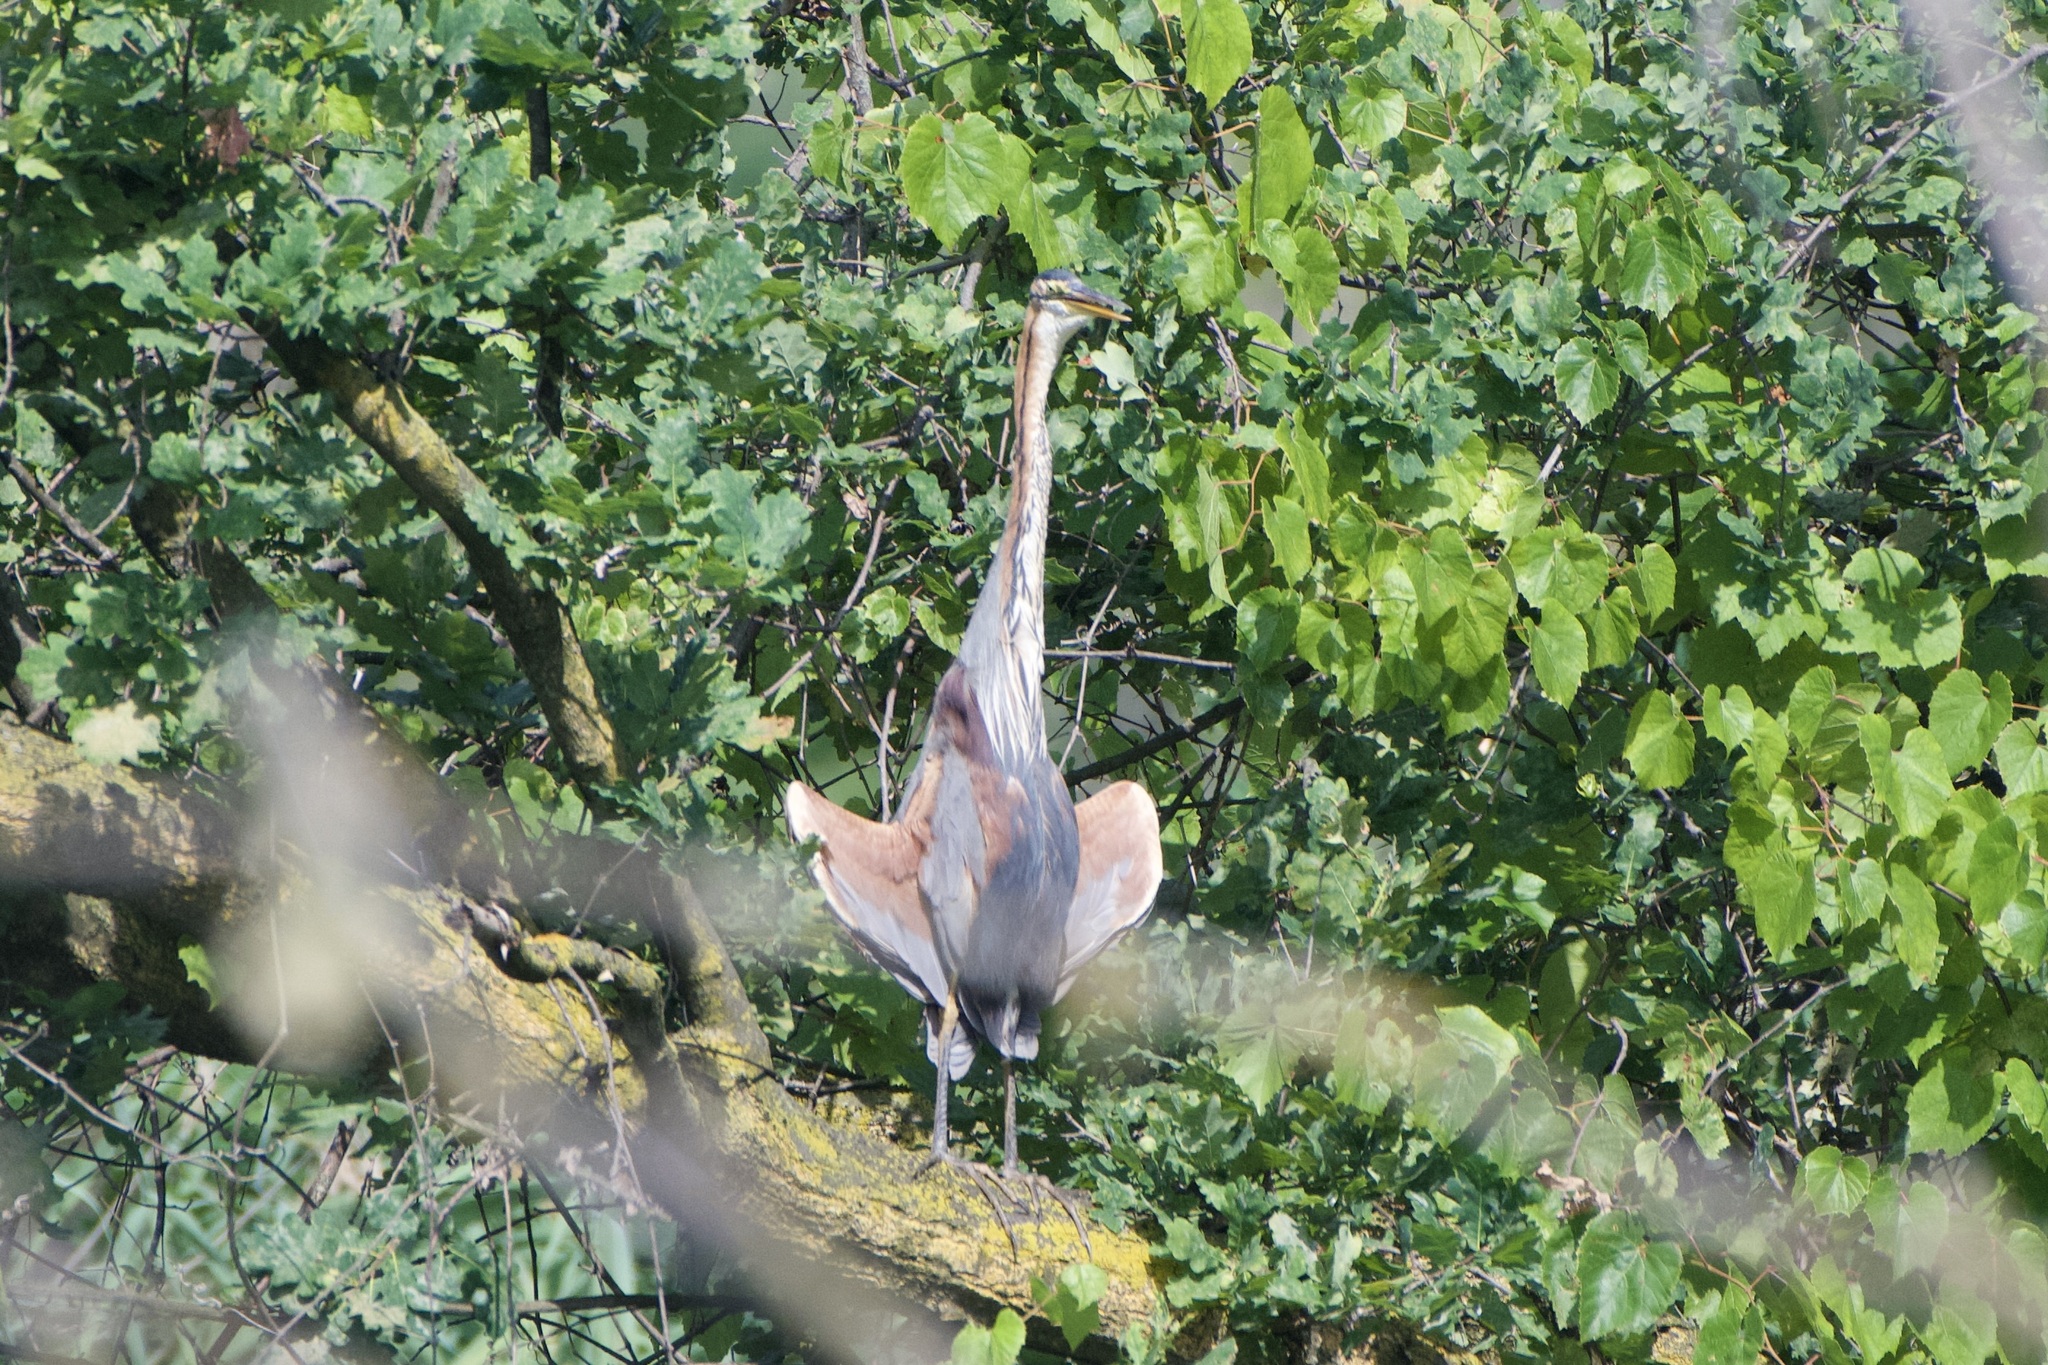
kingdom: Animalia
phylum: Chordata
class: Aves
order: Pelecaniformes
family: Ardeidae
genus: Ardea
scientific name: Ardea purpurea
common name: Purple heron
